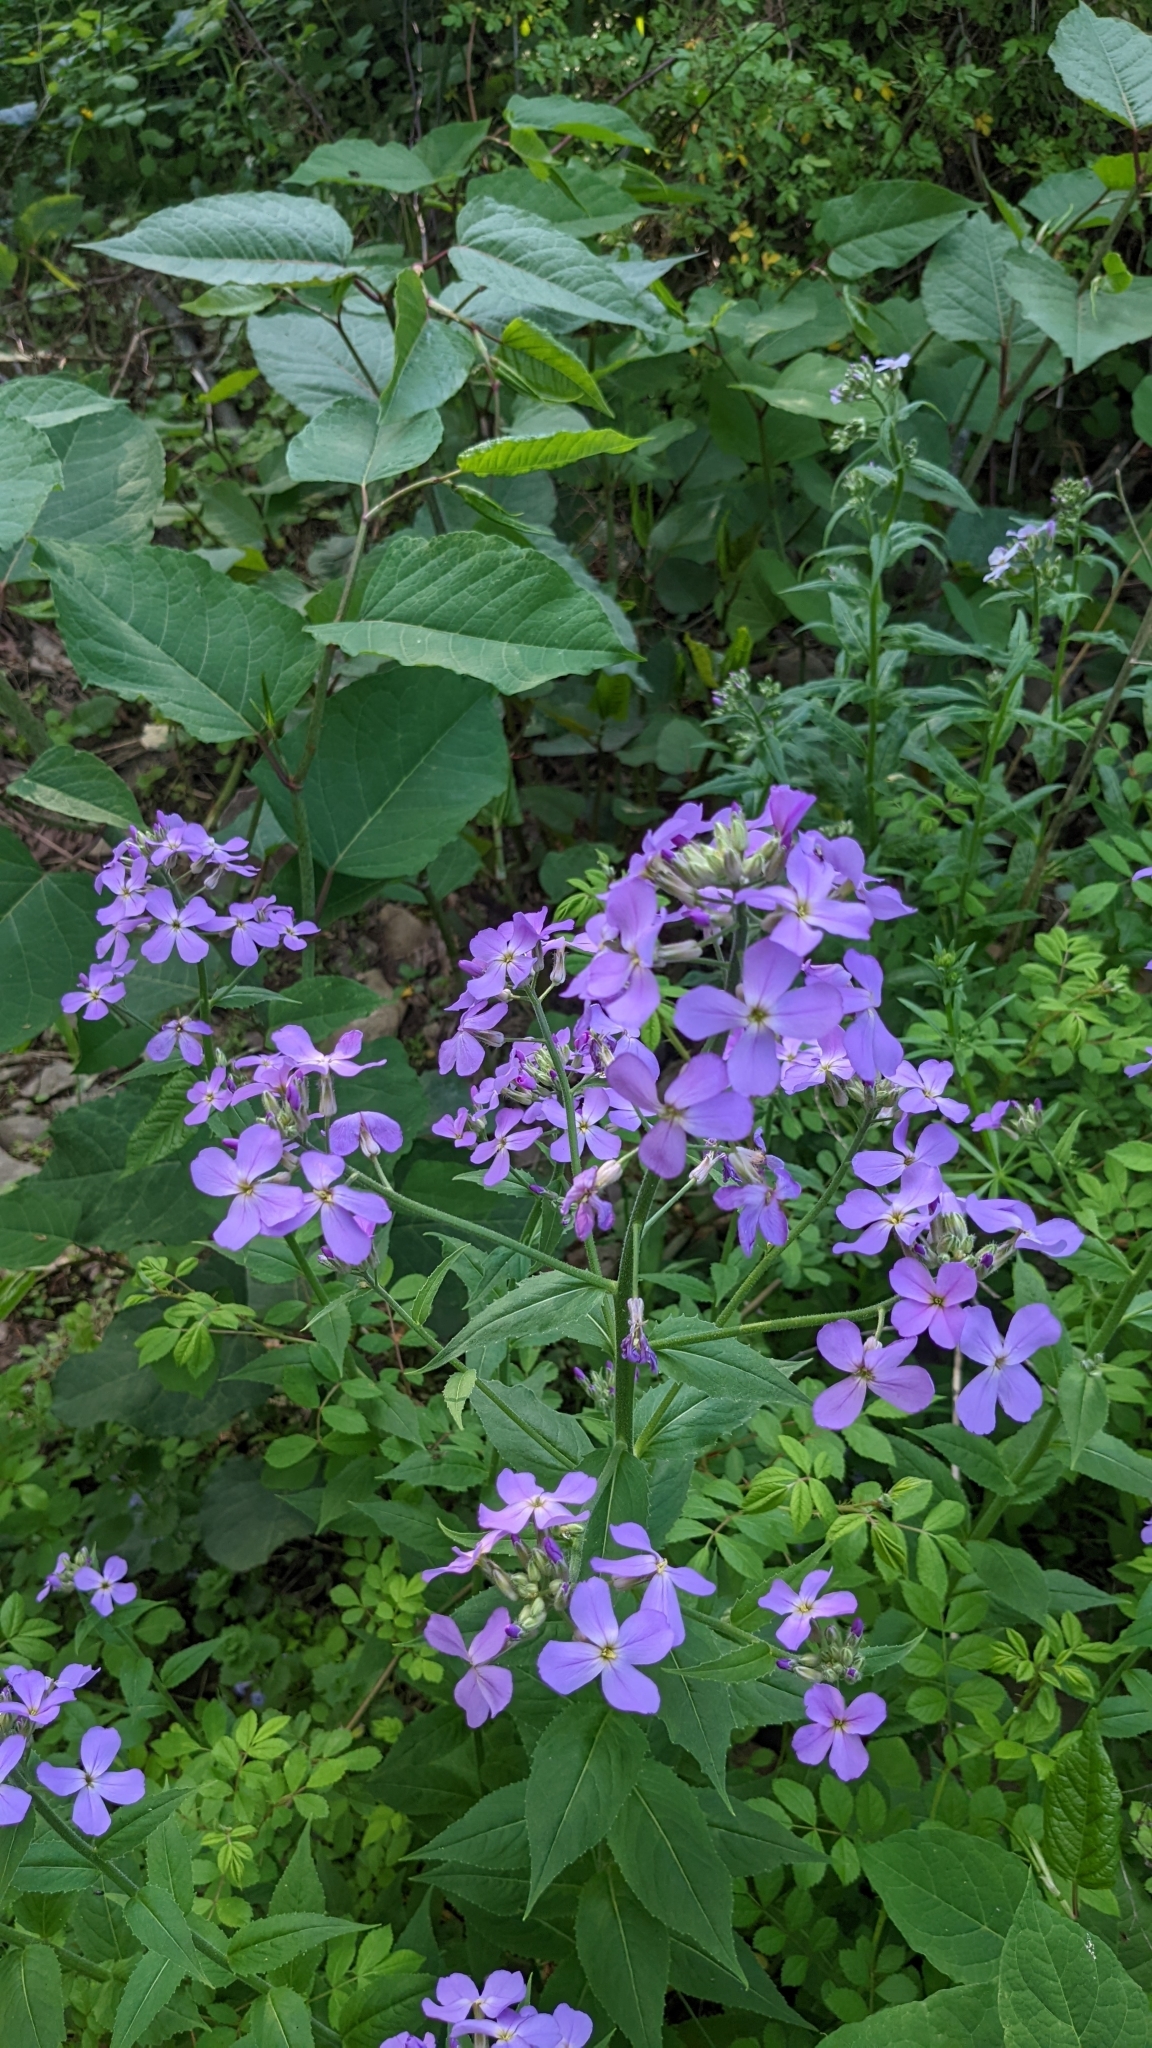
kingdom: Plantae
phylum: Tracheophyta
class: Magnoliopsida
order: Brassicales
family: Brassicaceae
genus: Hesperis
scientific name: Hesperis matronalis
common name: Dame's-violet
